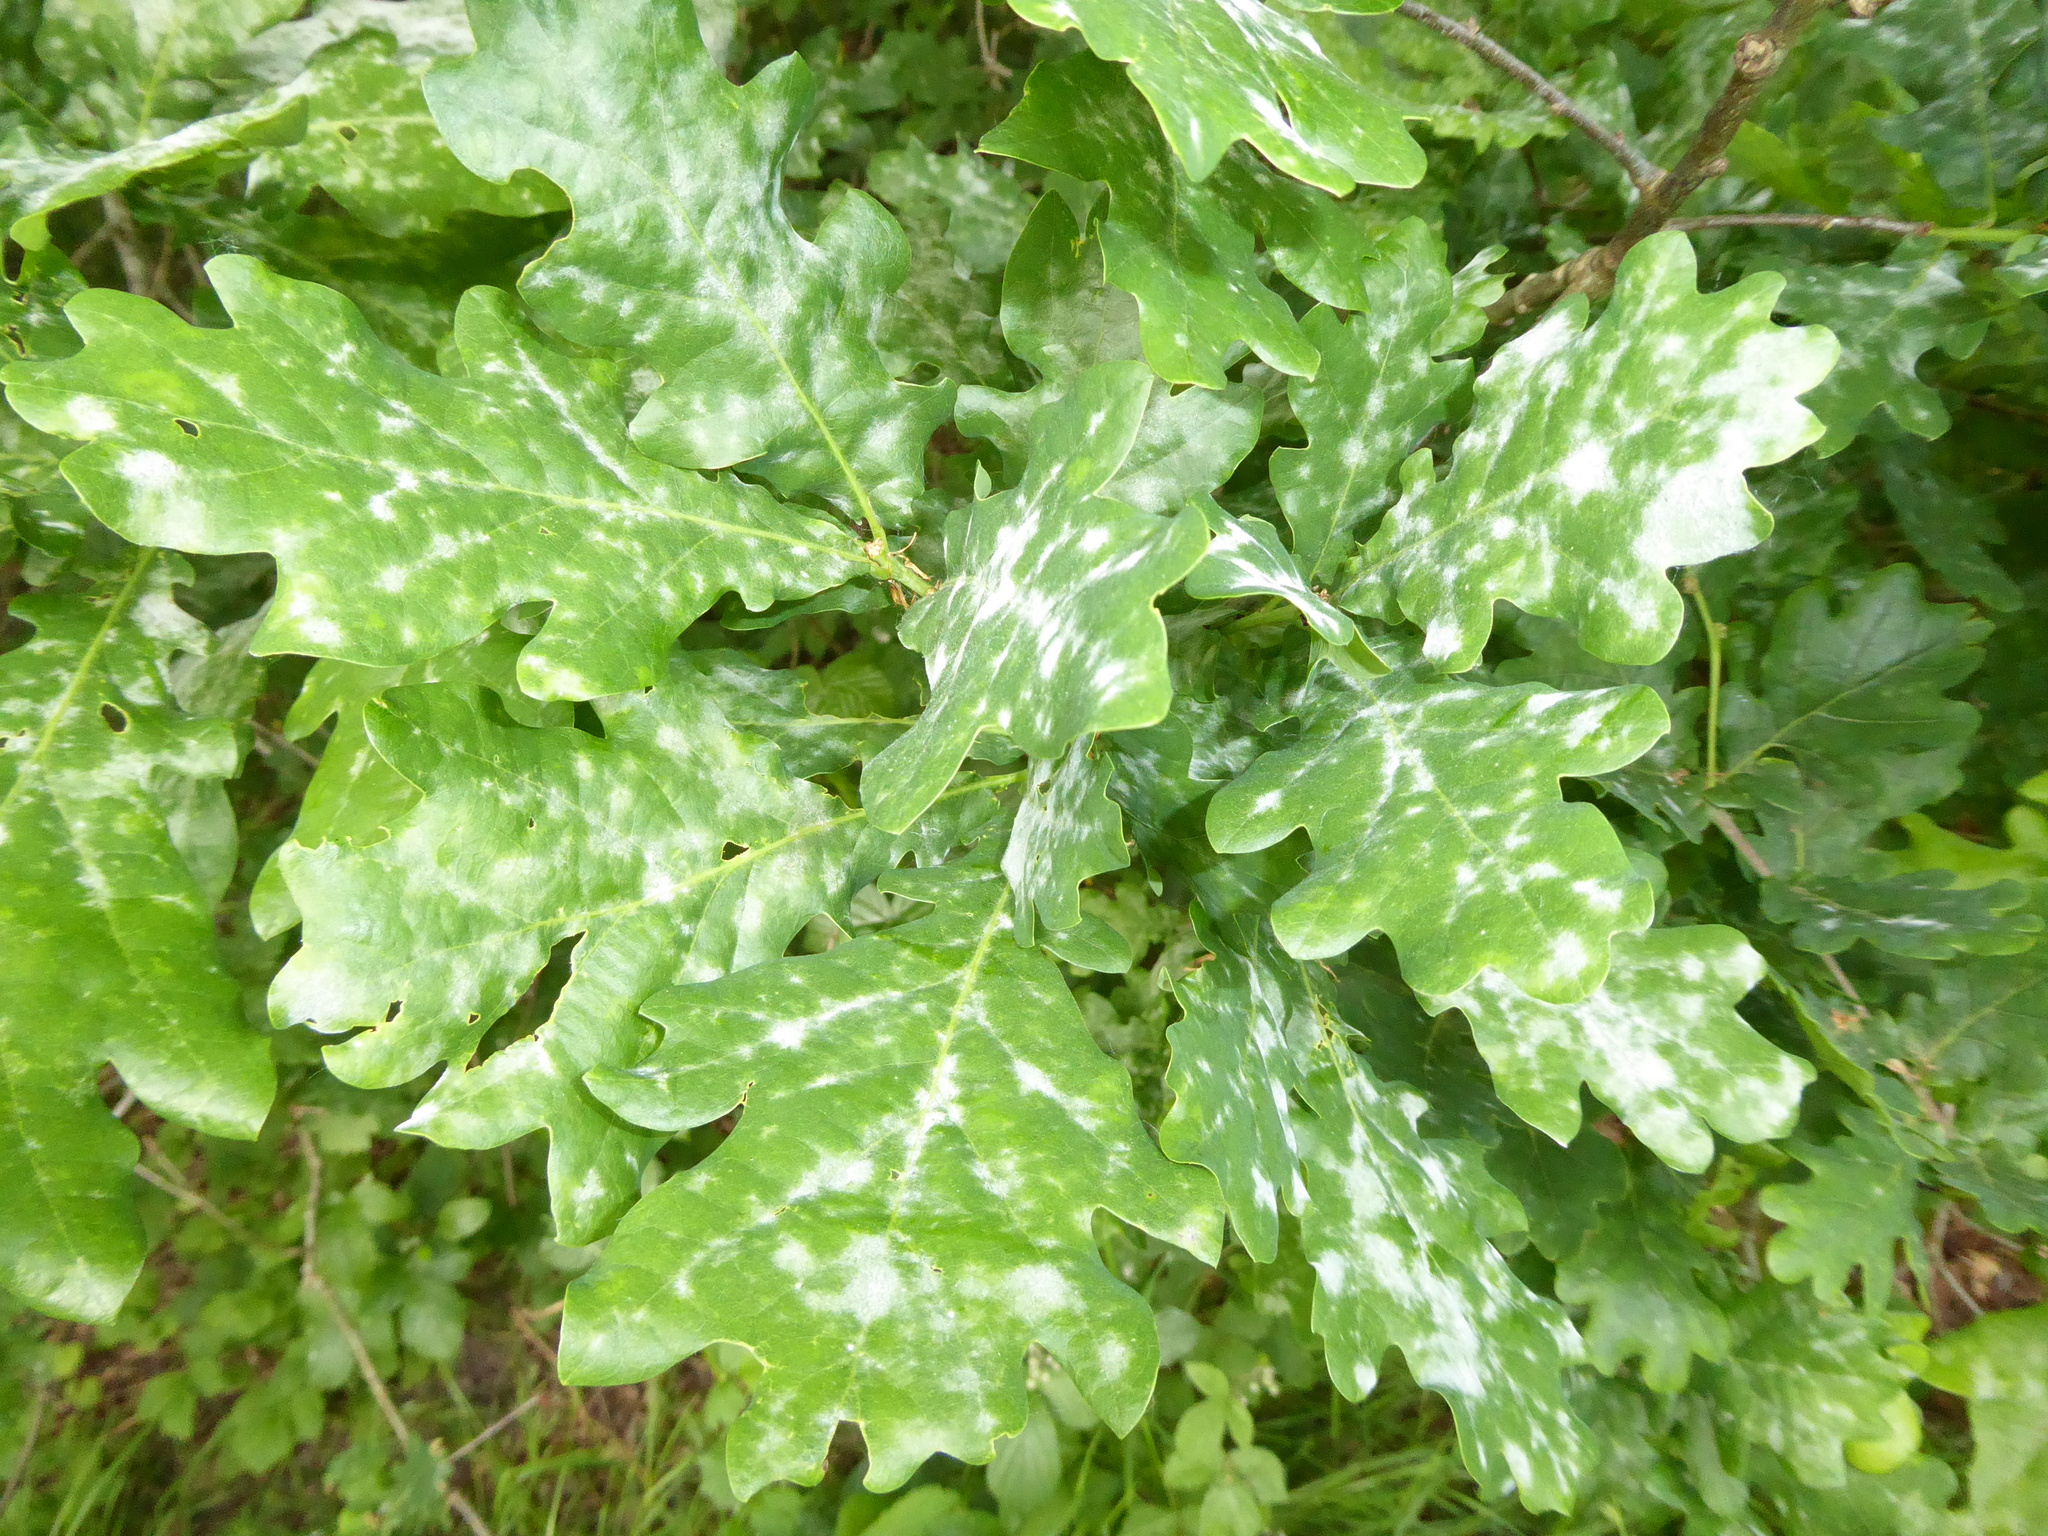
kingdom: Fungi
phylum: Ascomycota
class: Leotiomycetes
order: Helotiales
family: Erysiphaceae
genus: Erysiphe
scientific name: Erysiphe alphitoides
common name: Oak mildew
